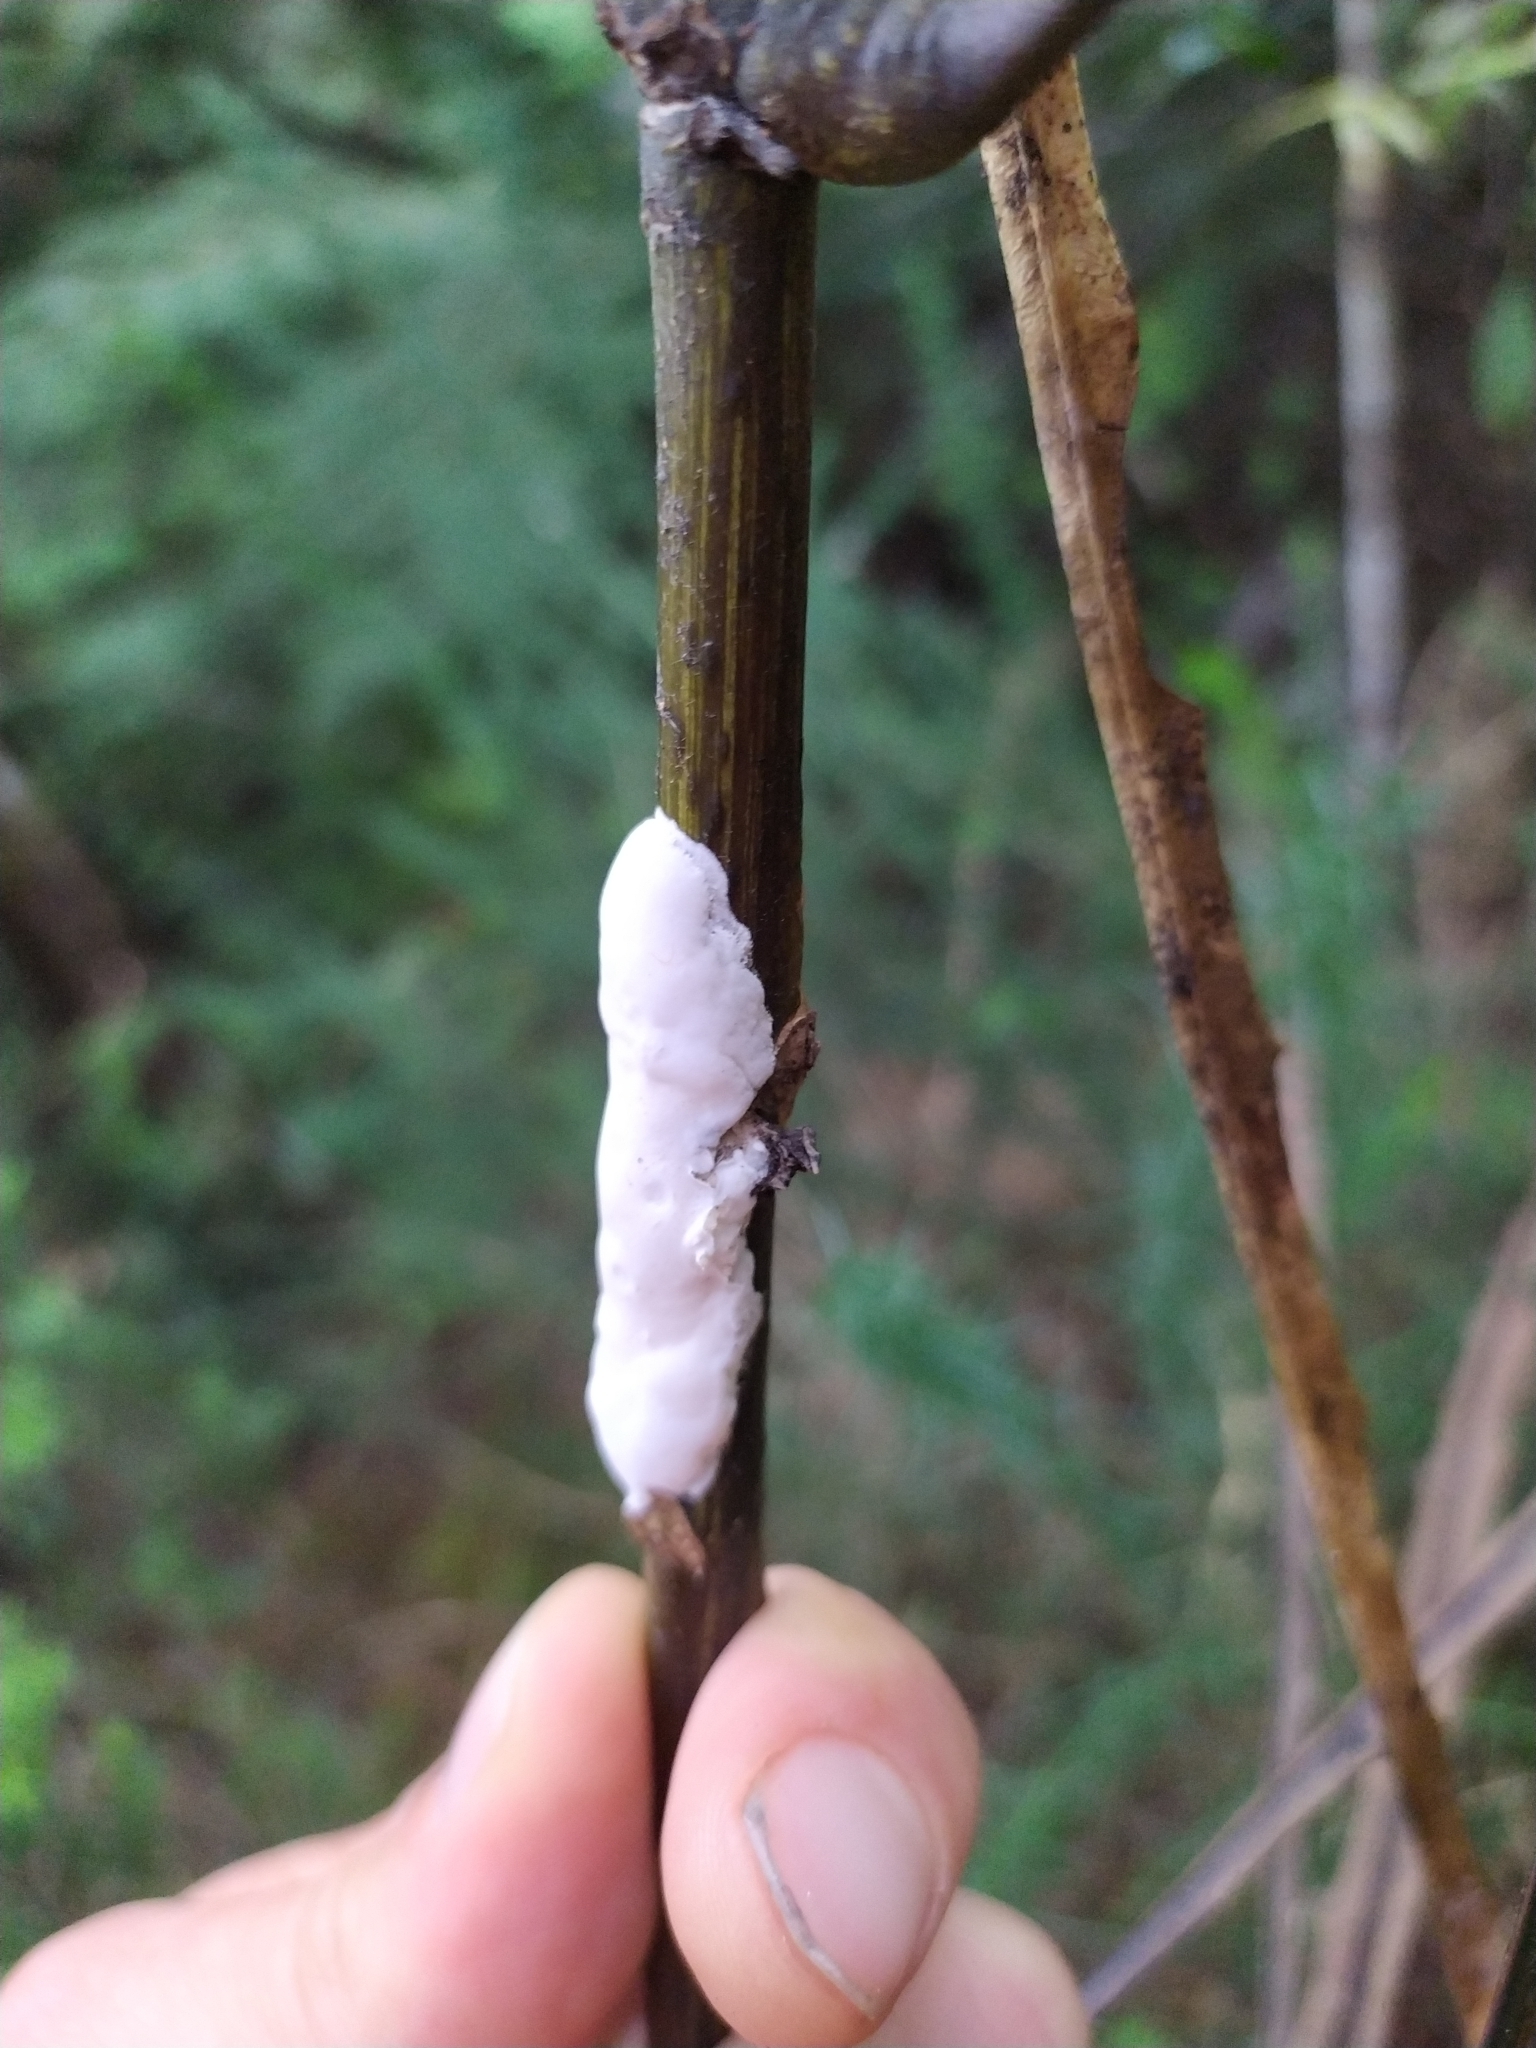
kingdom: Fungi
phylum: Basidiomycota
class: Pucciniomycetes
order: Septobasidiales
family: Septobasidiaceae
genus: Septobasidium
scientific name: Septobasidium simmondsii
